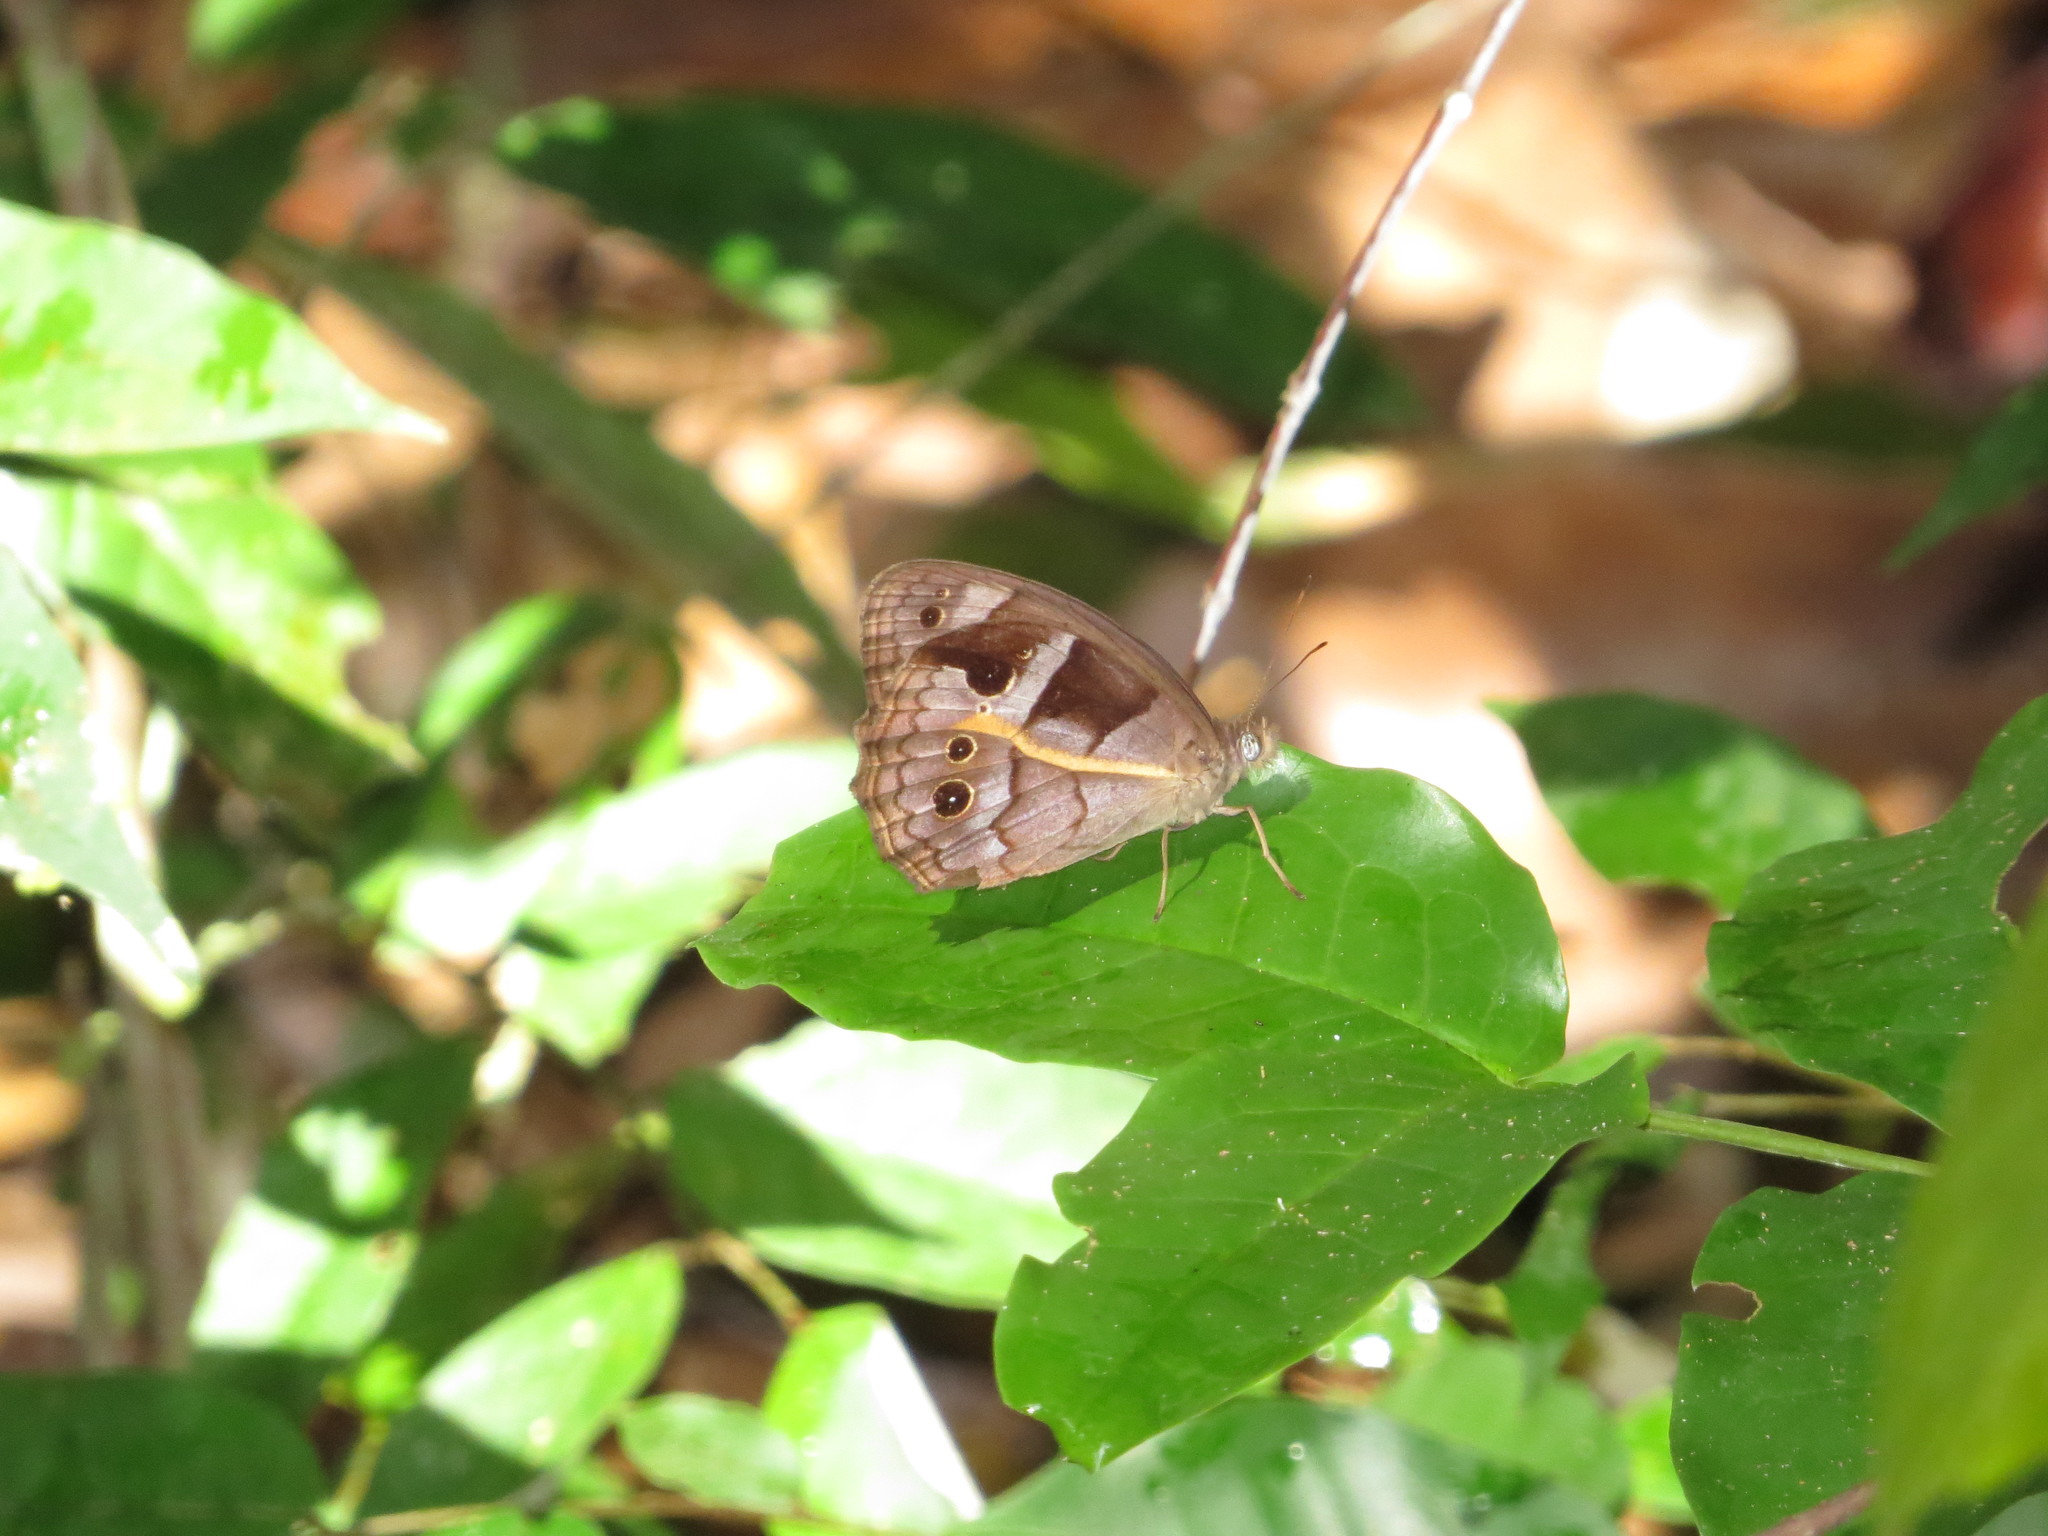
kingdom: Animalia
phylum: Arthropoda
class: Insecta
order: Lepidoptera
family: Nymphalidae
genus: Posttaygetis
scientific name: Posttaygetis penelea
